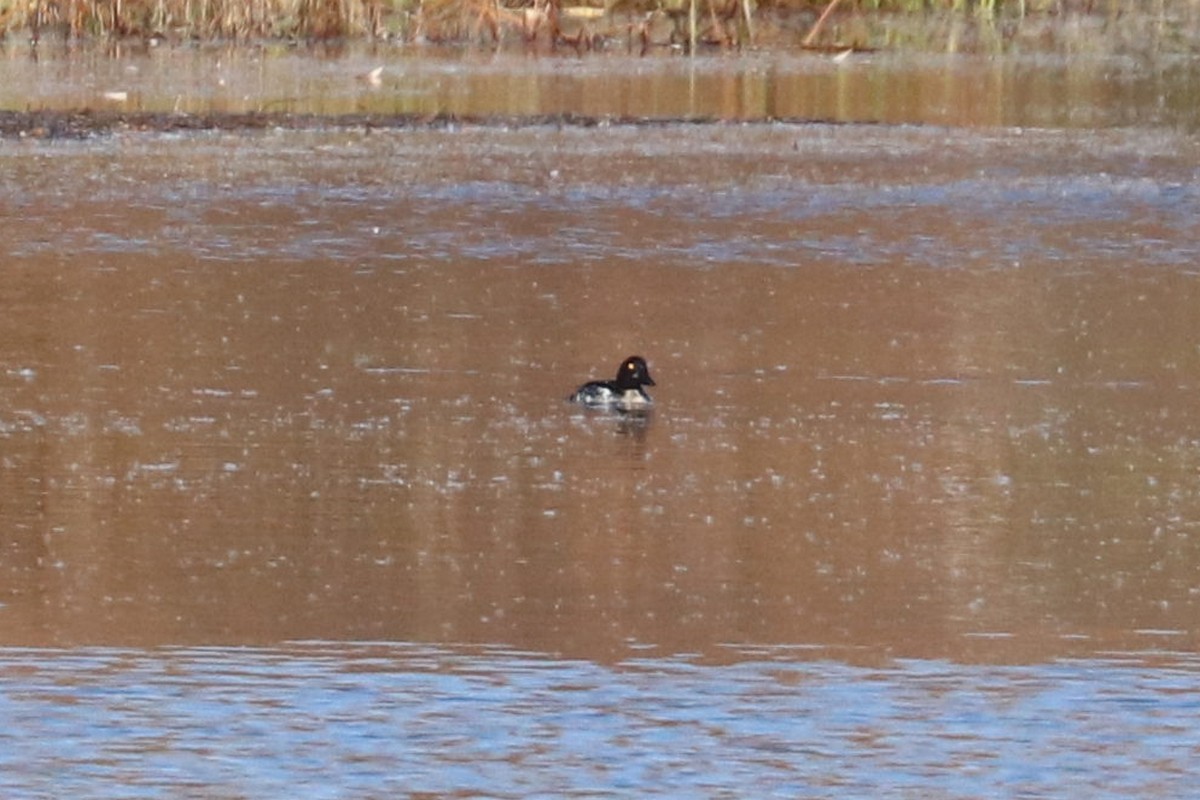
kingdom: Animalia
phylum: Chordata
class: Aves
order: Anseriformes
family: Anatidae
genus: Bucephala
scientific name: Bucephala clangula
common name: Common goldeneye
